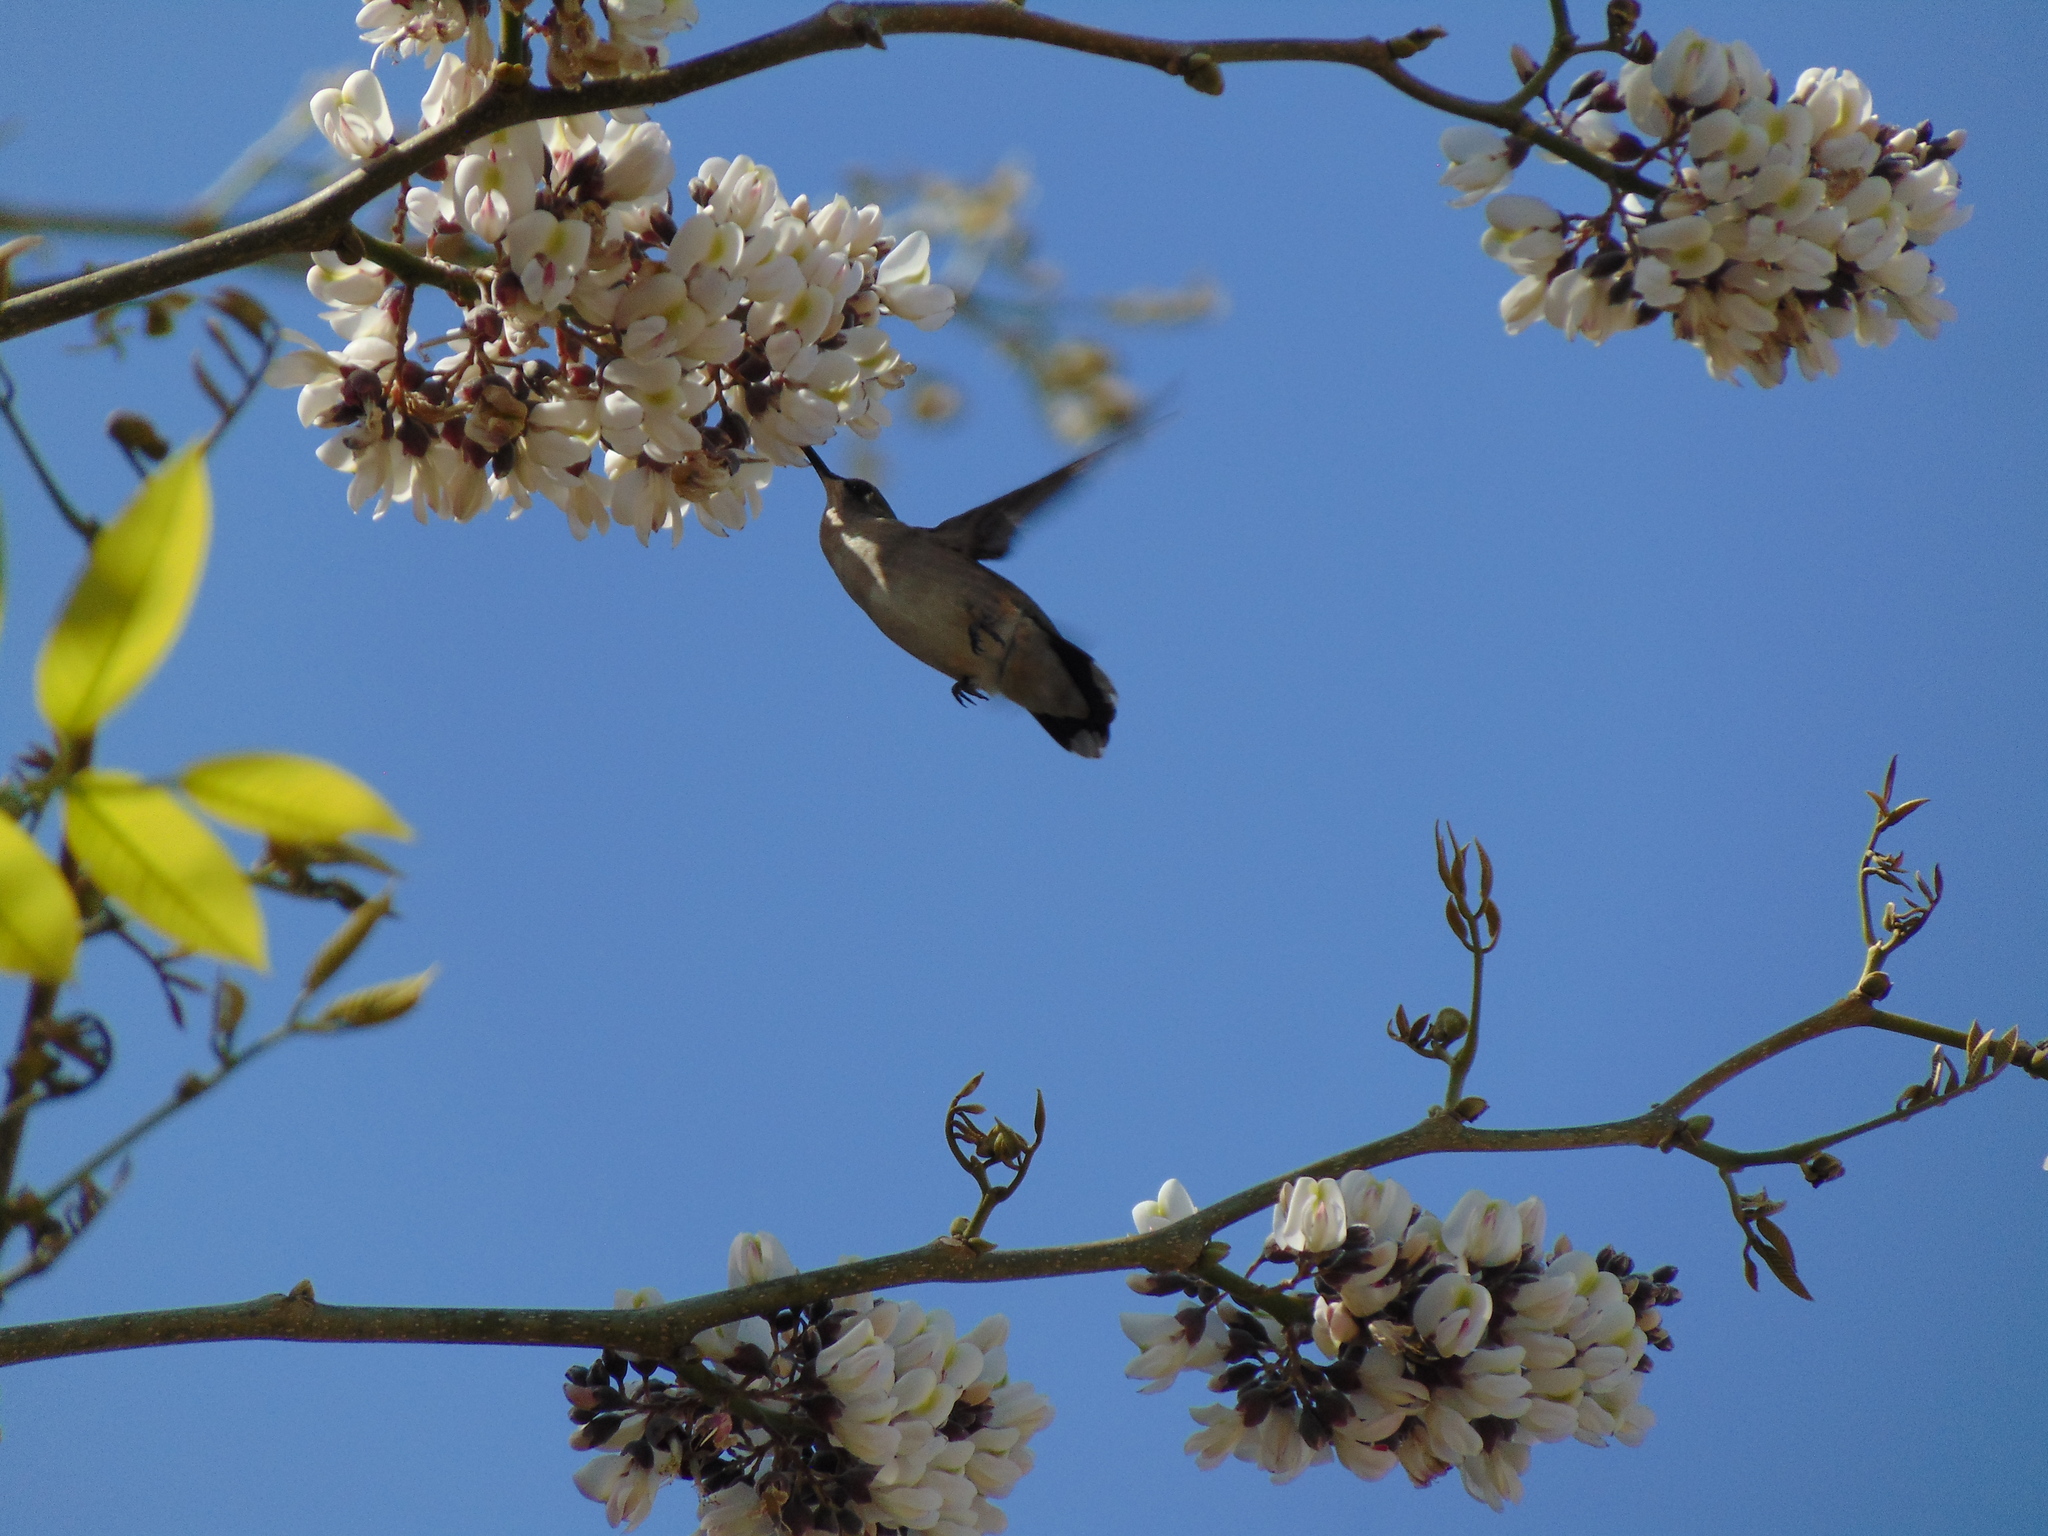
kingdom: Animalia
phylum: Chordata
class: Aves
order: Apodiformes
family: Trochilidae
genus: Archilochus
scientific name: Archilochus colubris
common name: Ruby-throated hummingbird
